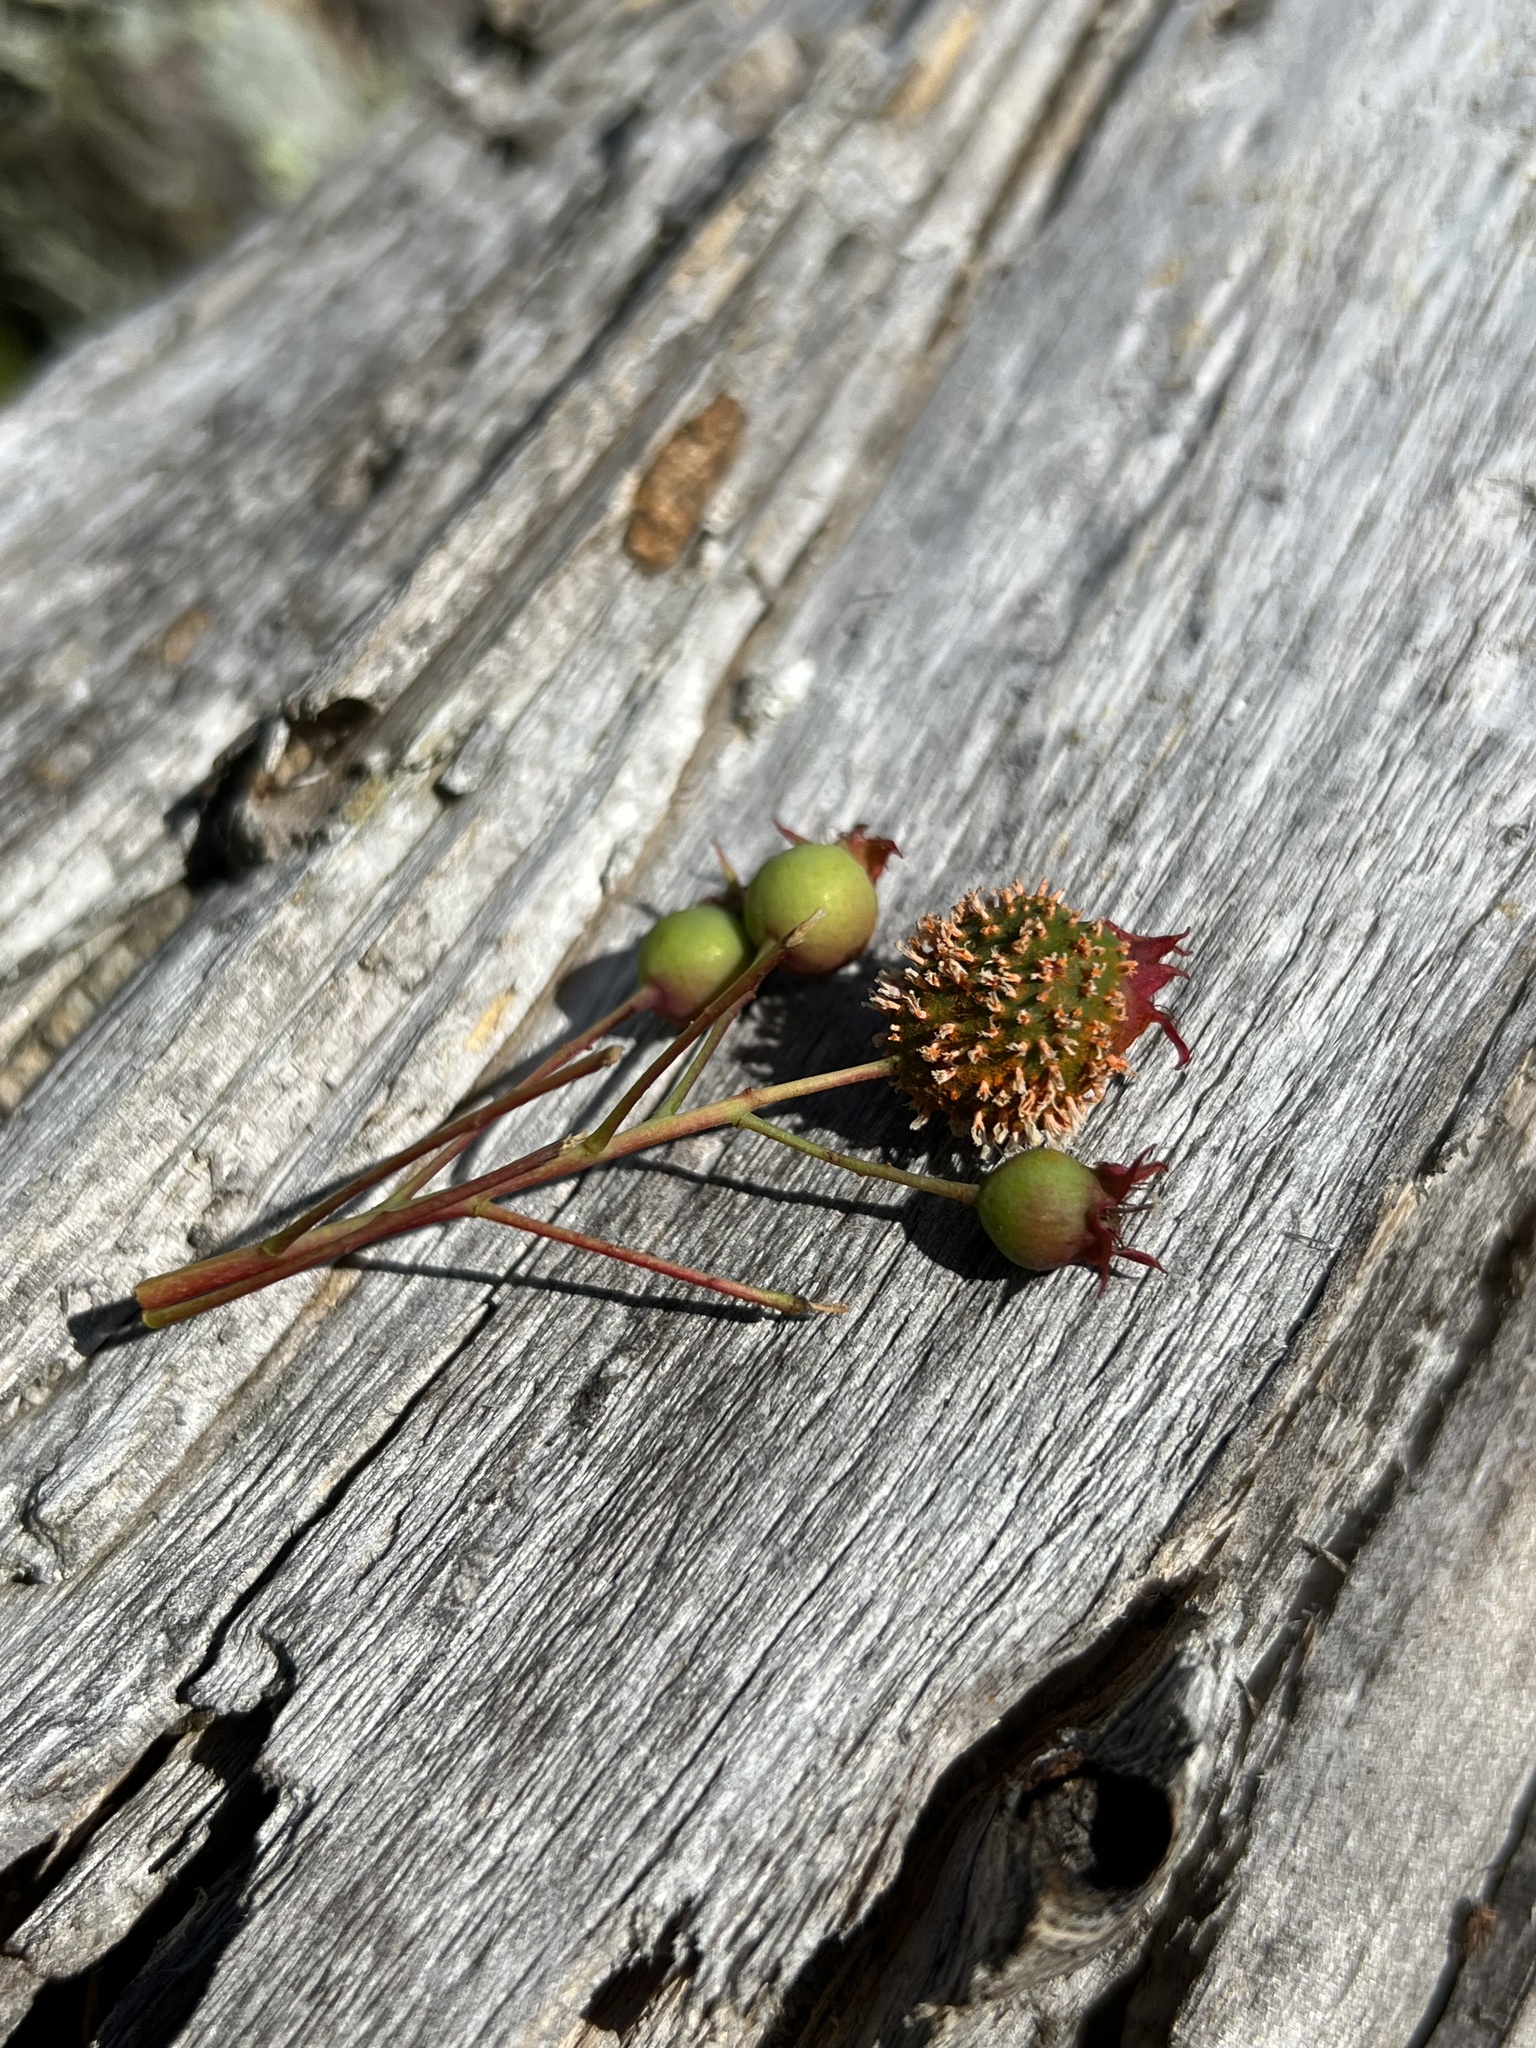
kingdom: Fungi
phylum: Basidiomycota
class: Pucciniomycetes
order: Pucciniales
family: Gymnosporangiaceae
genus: Gymnosporangium
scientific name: Gymnosporangium clavipes
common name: Quince rust
